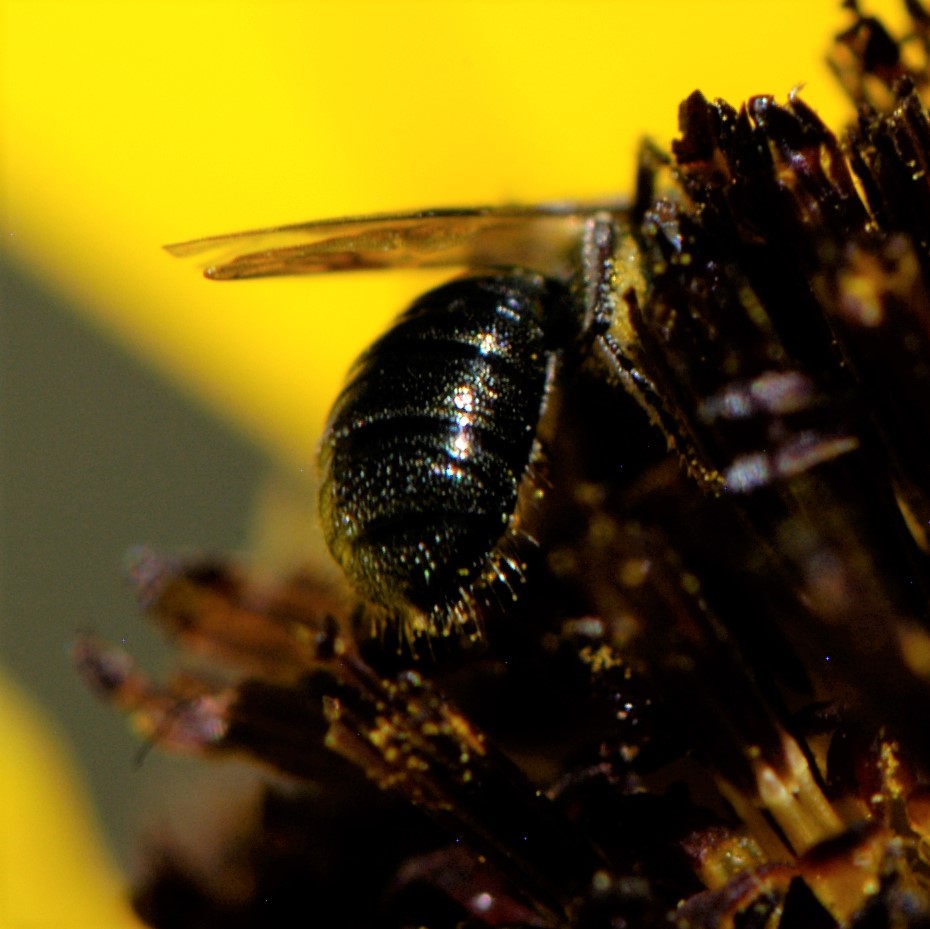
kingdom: Animalia
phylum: Arthropoda
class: Insecta
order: Hymenoptera
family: Apidae
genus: Zadontomerus
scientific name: Zadontomerus
